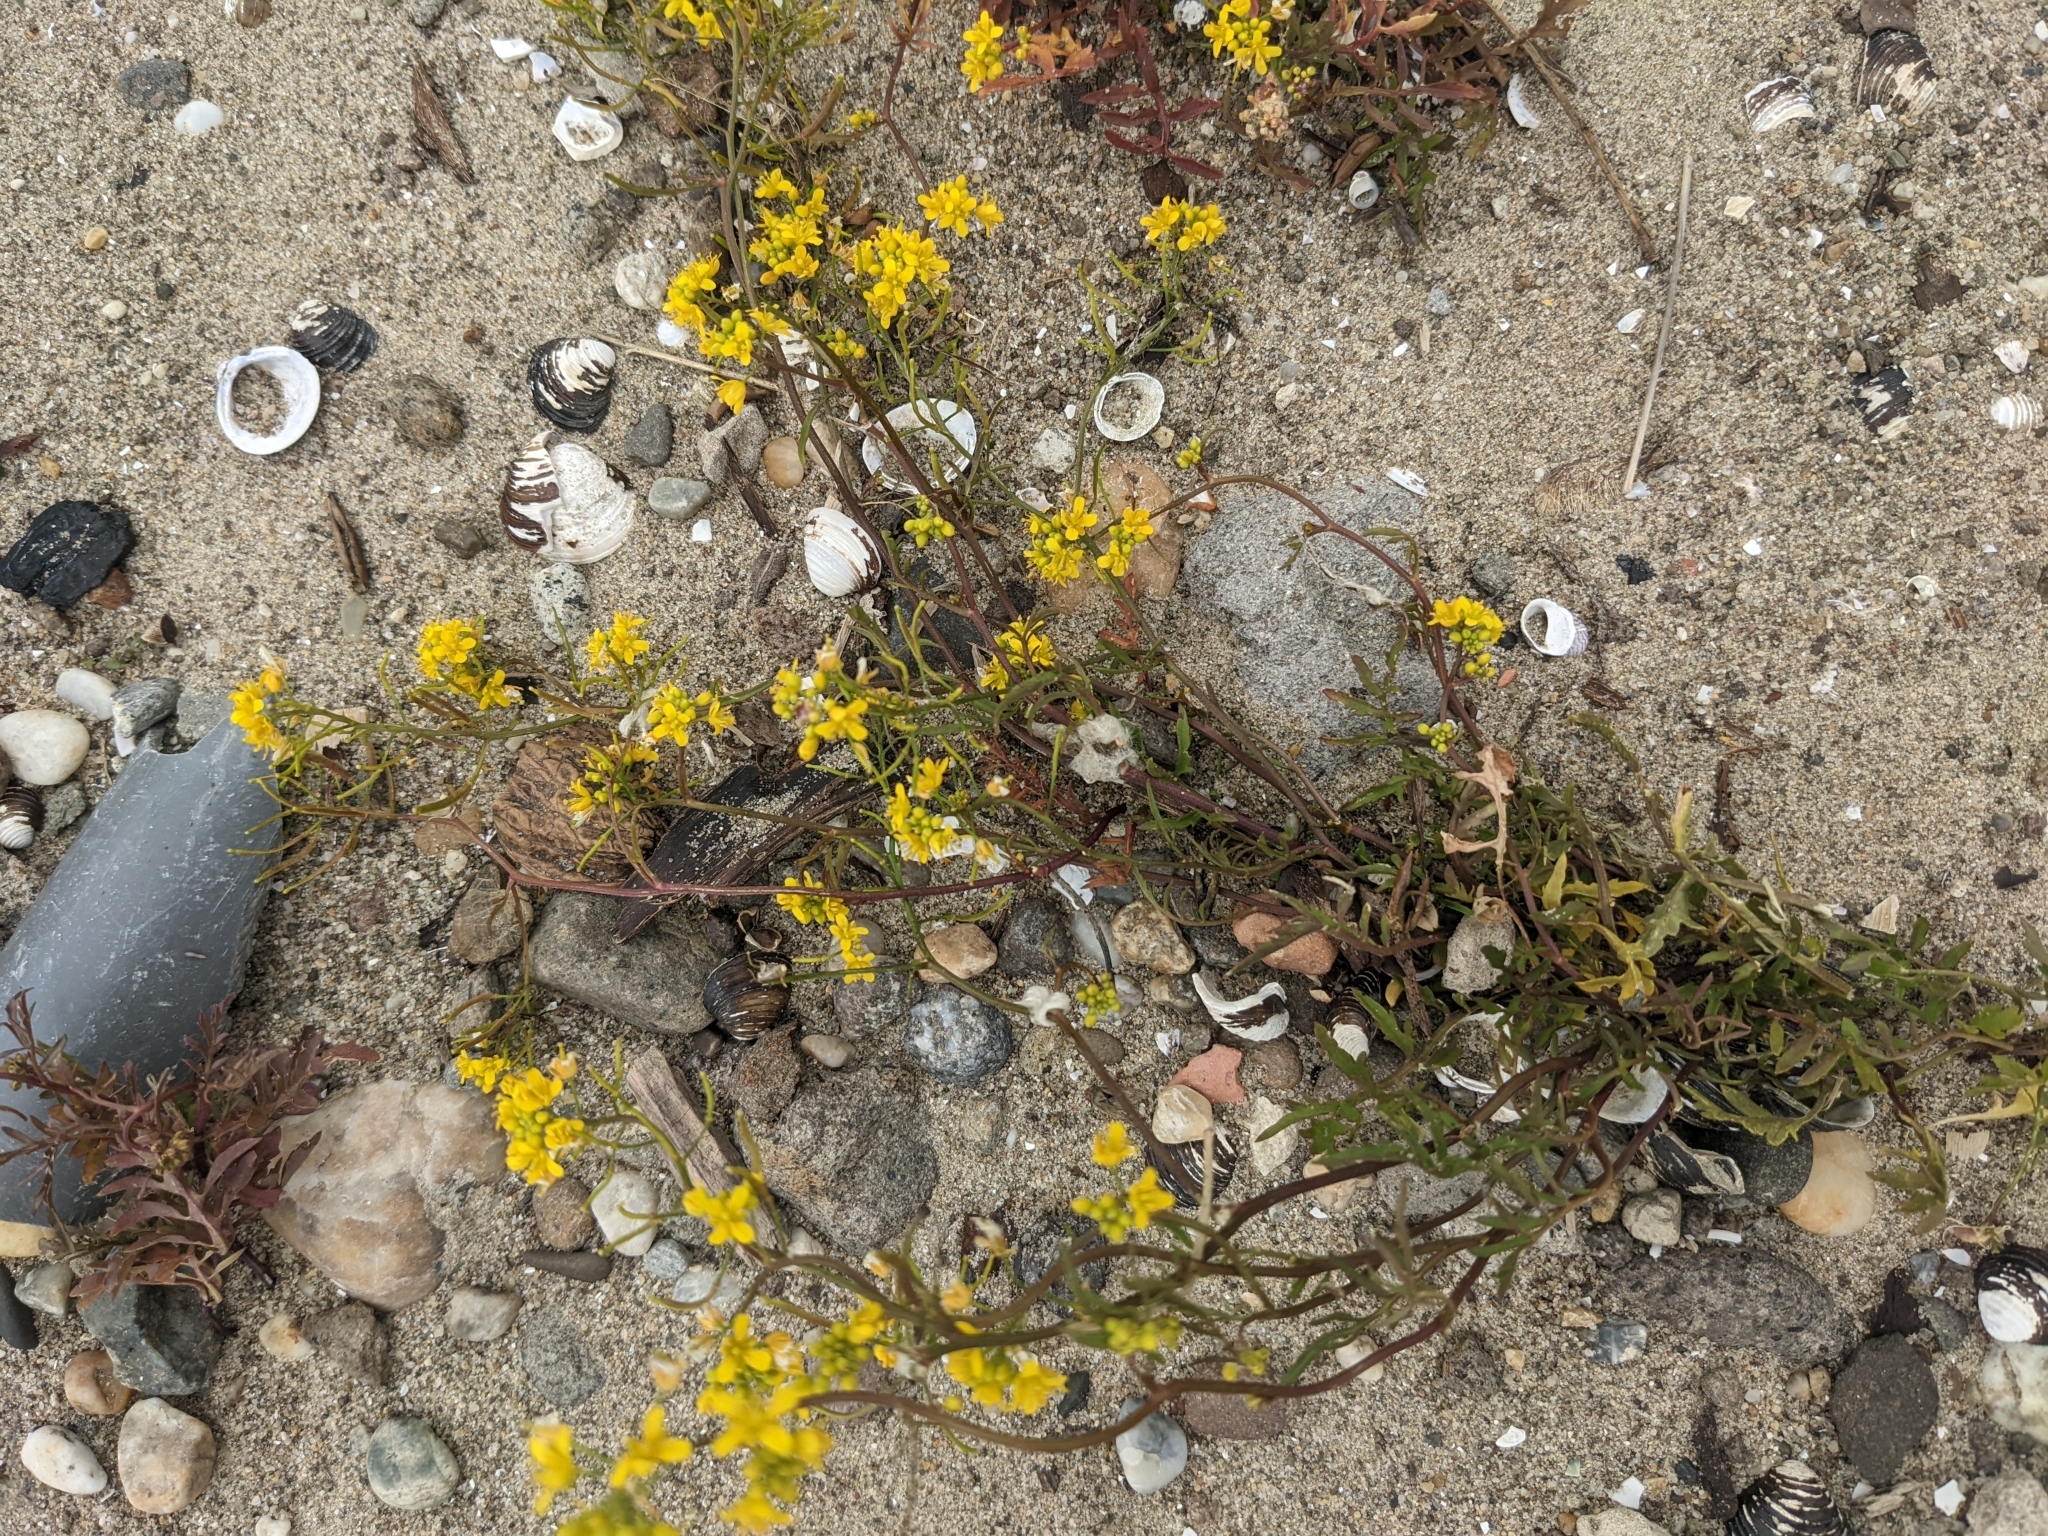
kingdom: Plantae
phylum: Tracheophyta
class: Magnoliopsida
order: Brassicales
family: Brassicaceae
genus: Rorippa
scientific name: Rorippa sylvestris
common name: Creeping yellowcress
